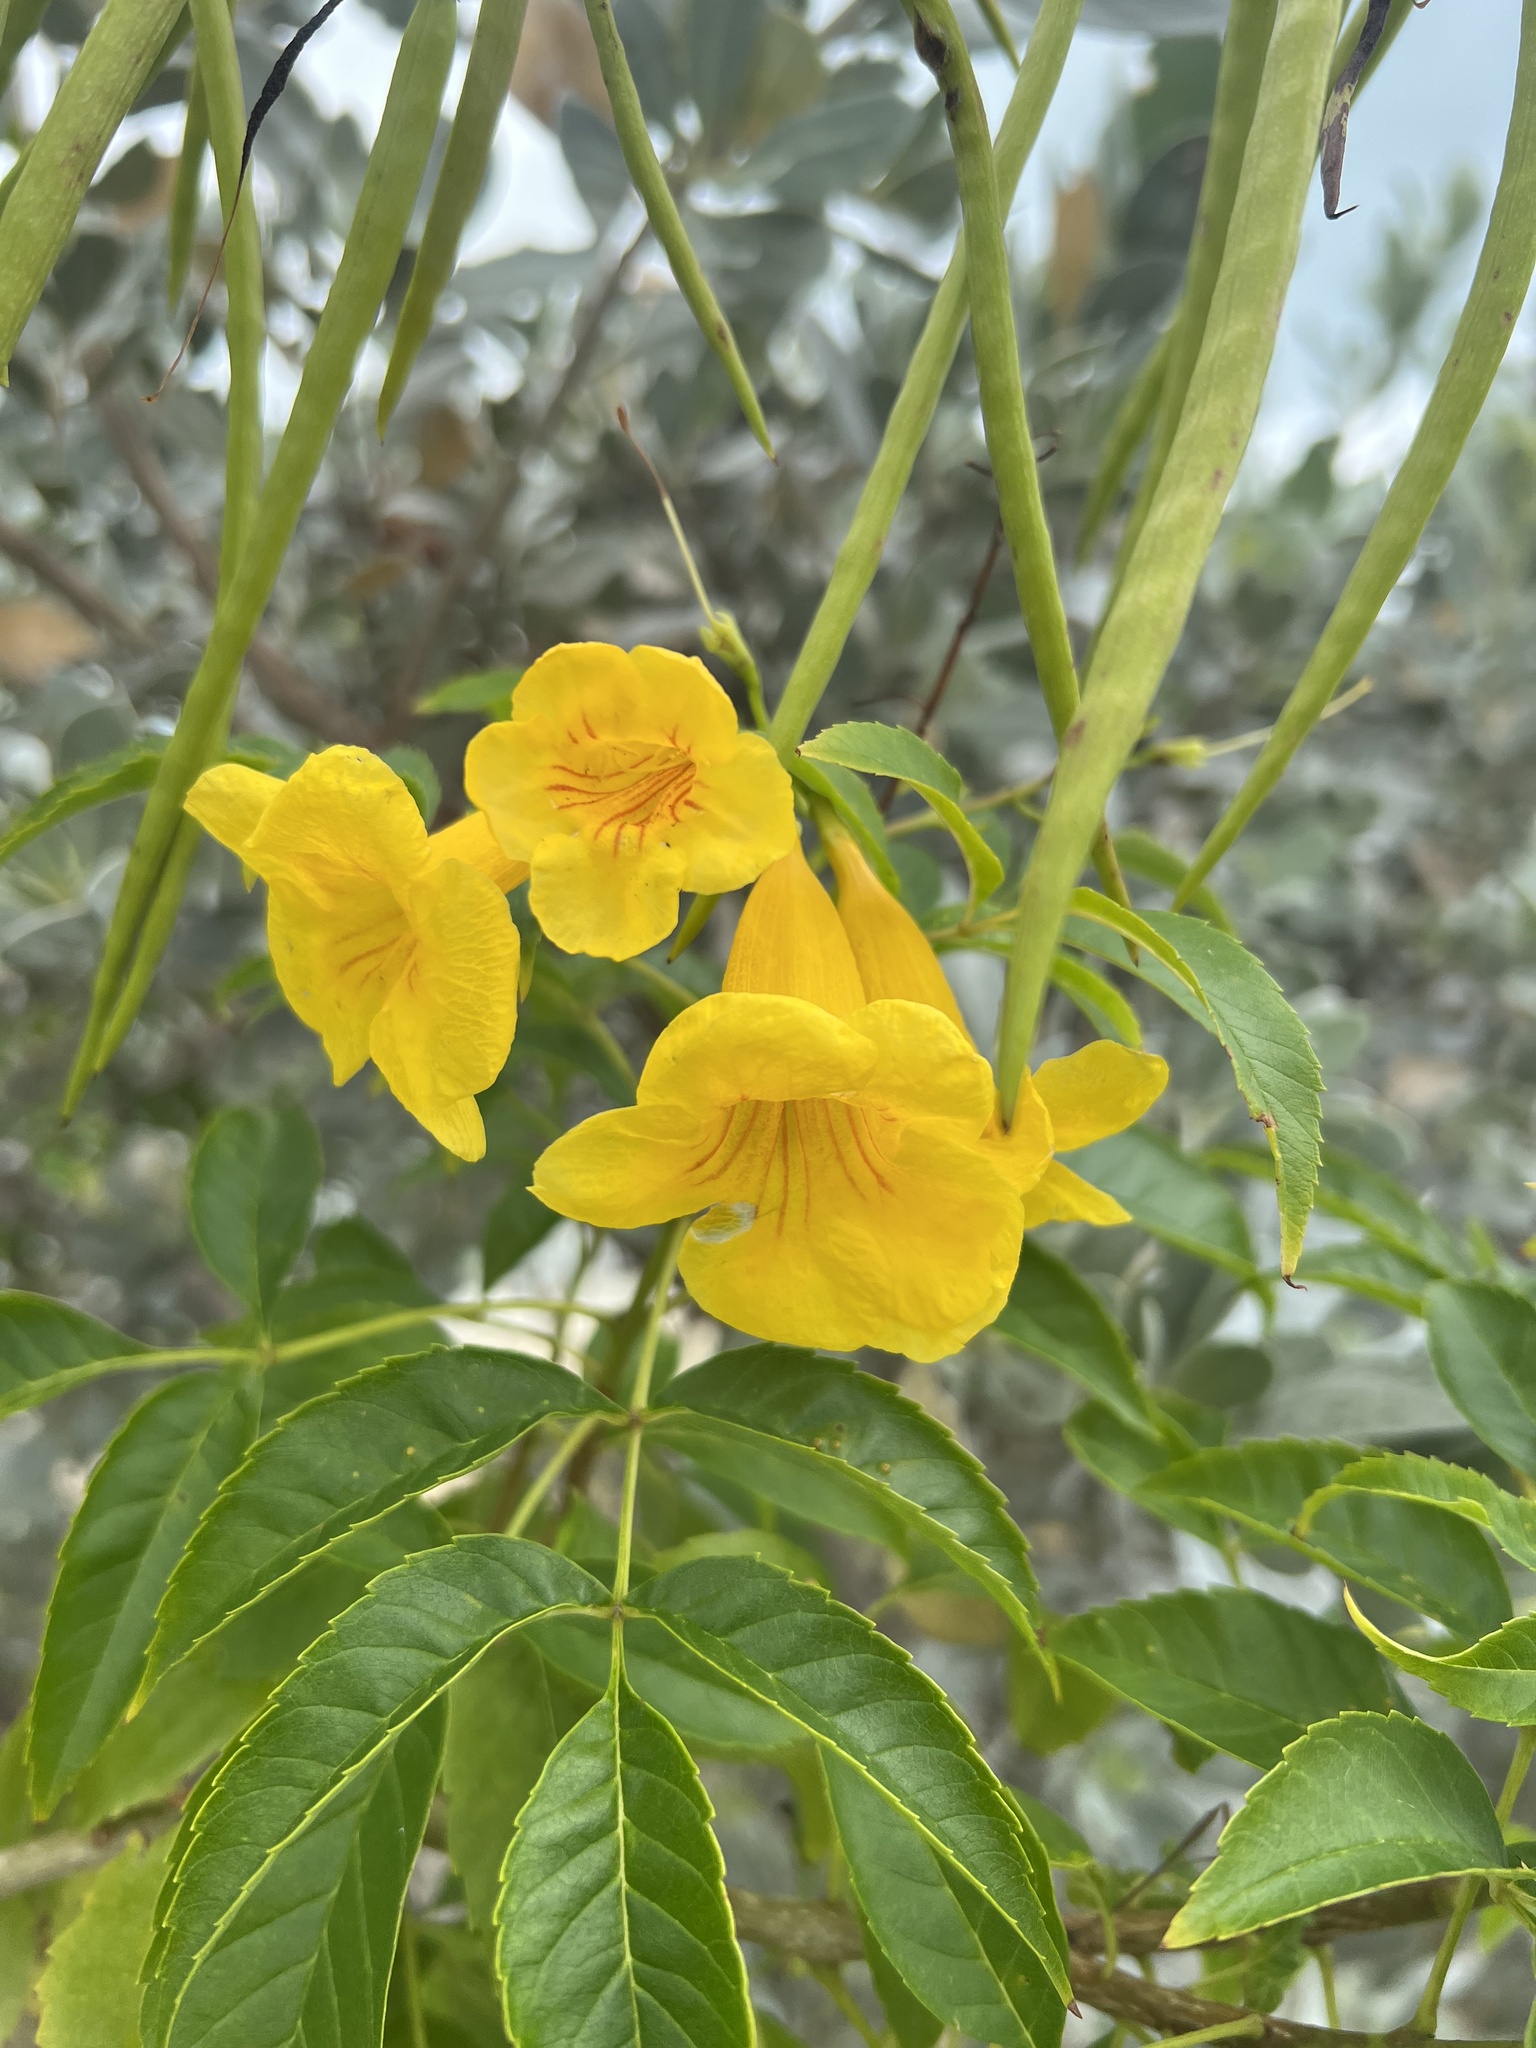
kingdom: Plantae
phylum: Tracheophyta
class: Magnoliopsida
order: Lamiales
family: Bignoniaceae
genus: Tecoma
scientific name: Tecoma stans
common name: Yellow trumpetbush
